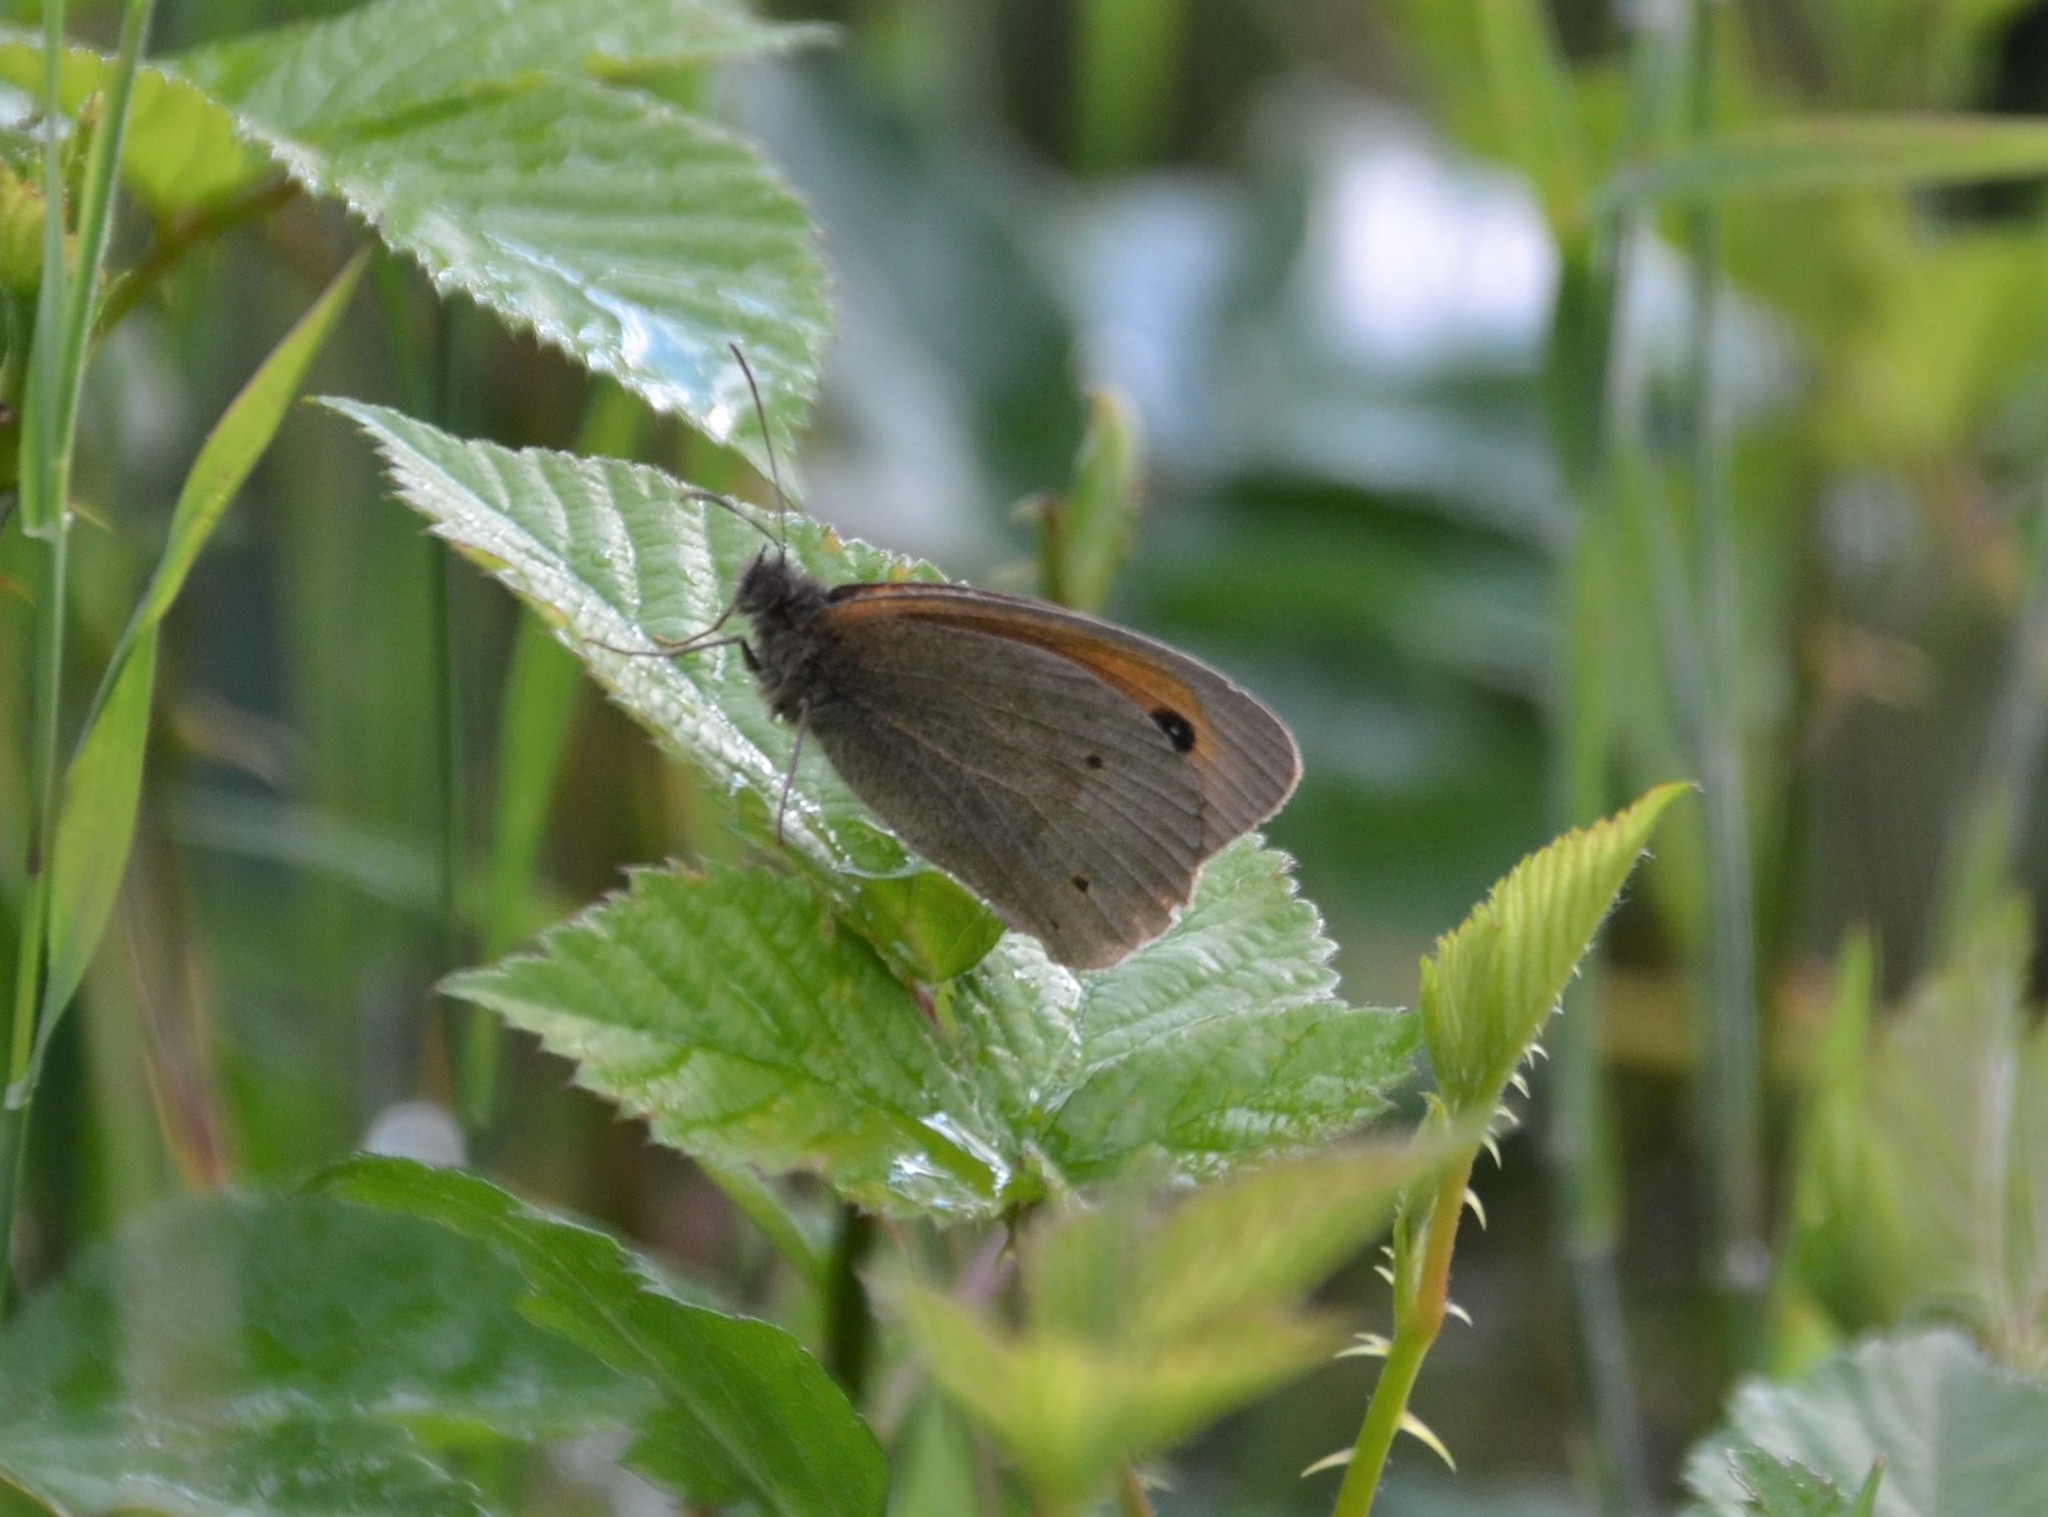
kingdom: Animalia
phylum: Arthropoda
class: Insecta
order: Lepidoptera
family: Nymphalidae
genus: Maniola
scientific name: Maniola jurtina
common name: Meadow brown
